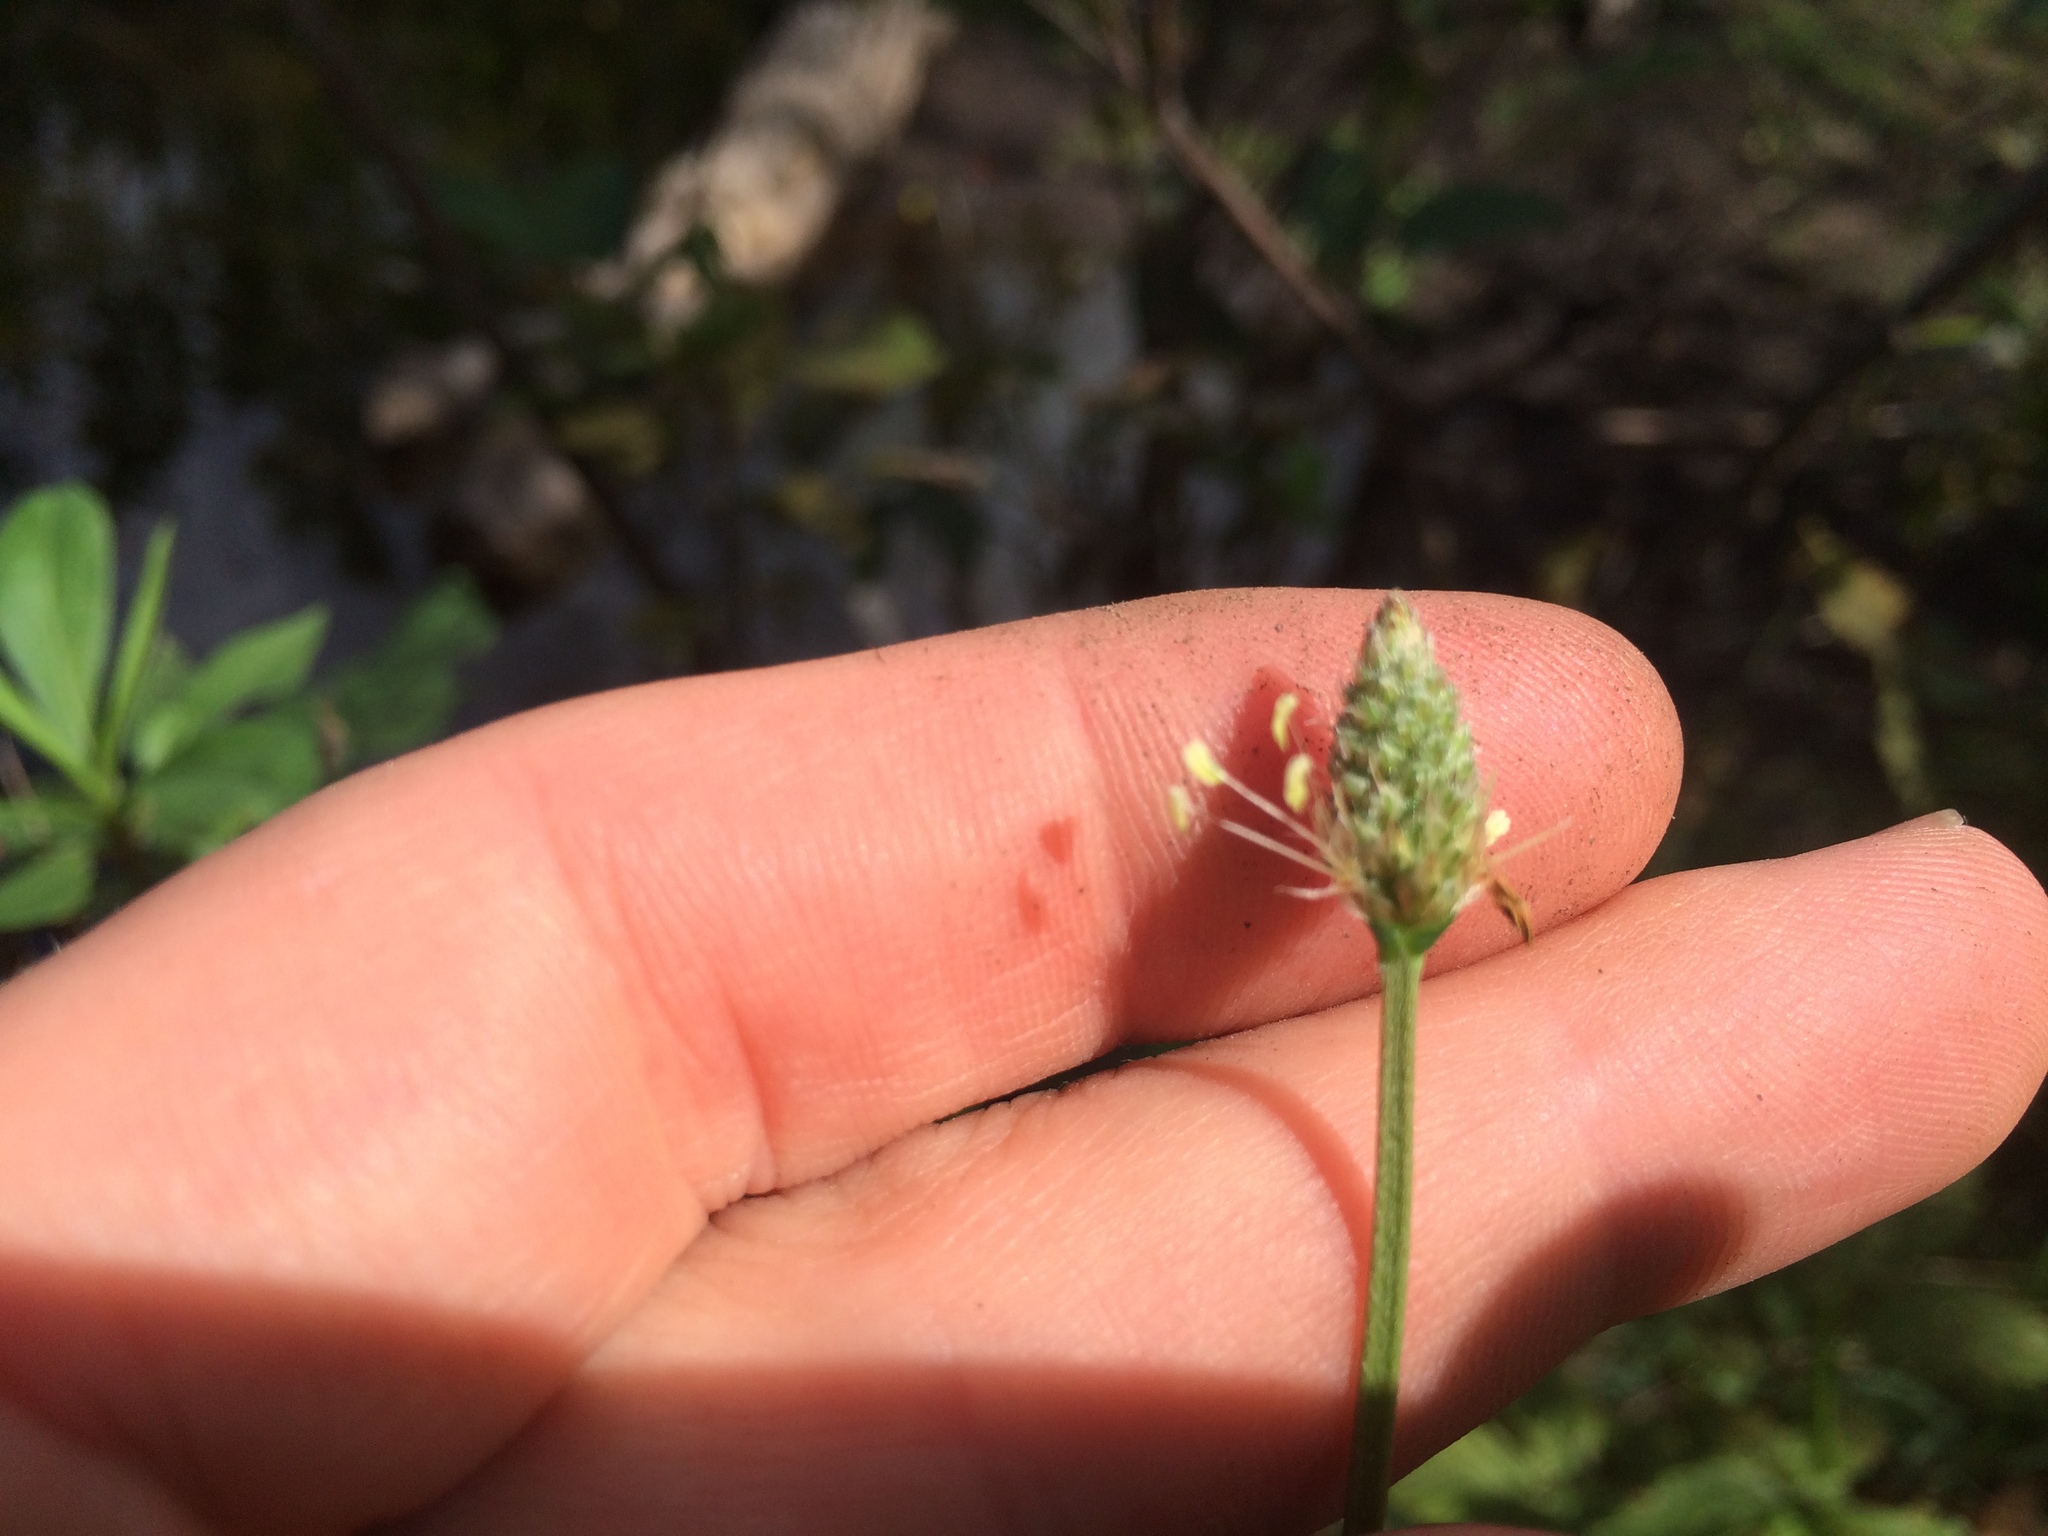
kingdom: Plantae
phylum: Tracheophyta
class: Magnoliopsida
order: Lamiales
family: Plantaginaceae
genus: Plantago
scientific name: Plantago lanceolata
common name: Ribwort plantain
